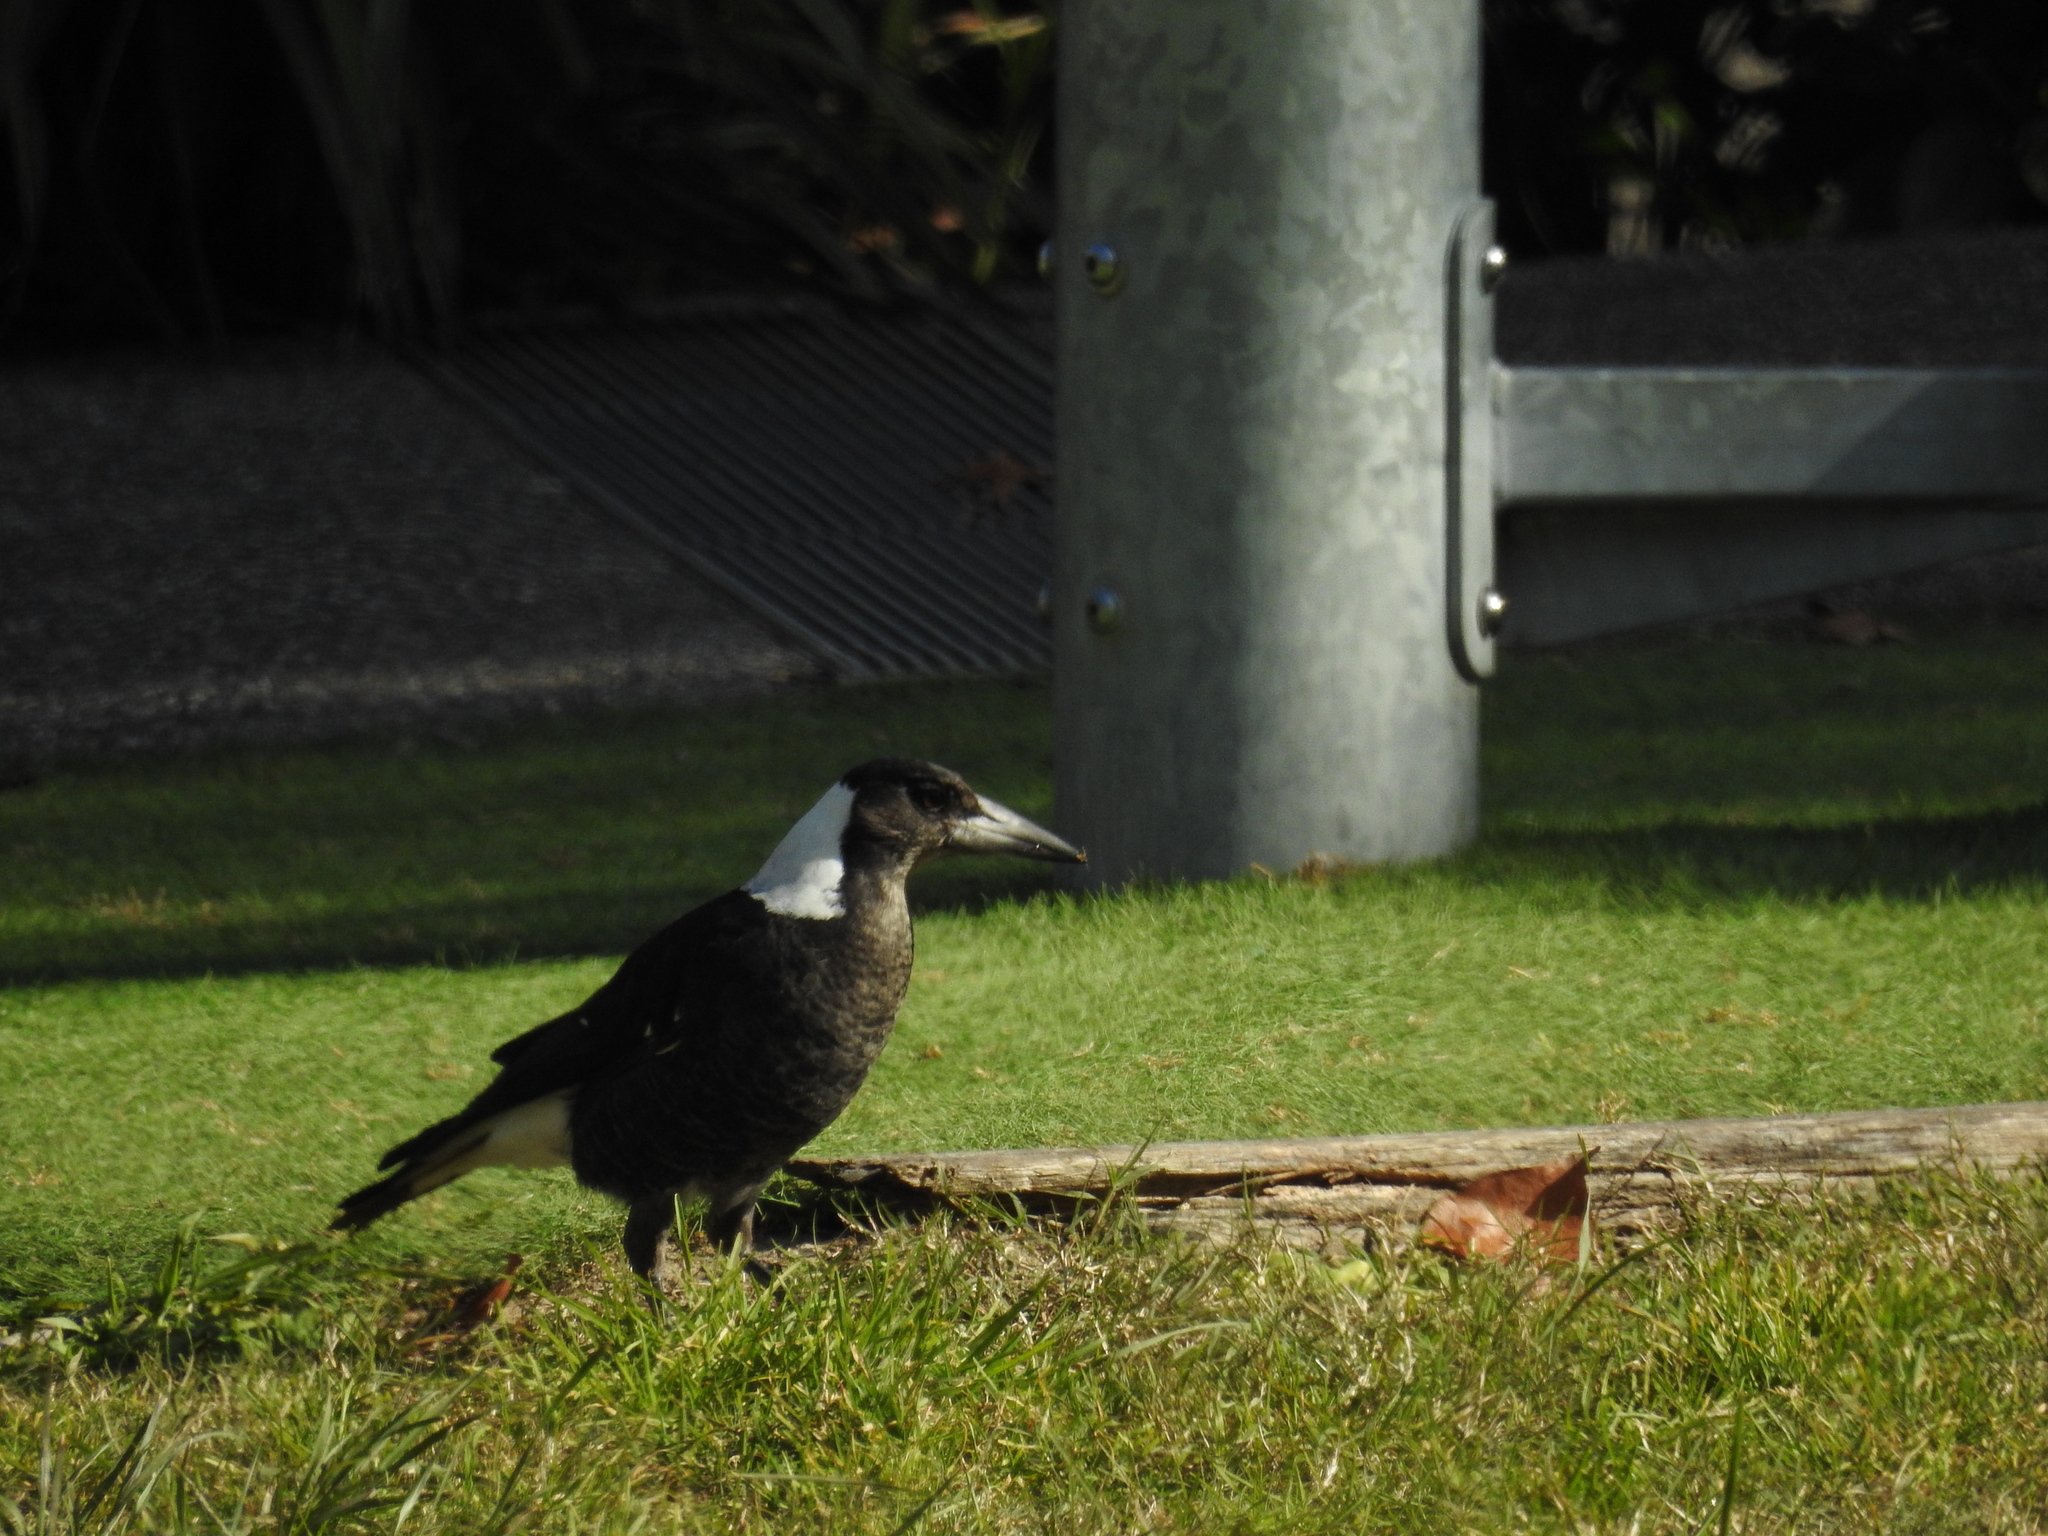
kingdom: Animalia
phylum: Chordata
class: Aves
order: Passeriformes
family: Cracticidae
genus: Gymnorhina
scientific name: Gymnorhina tibicen
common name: Australian magpie
